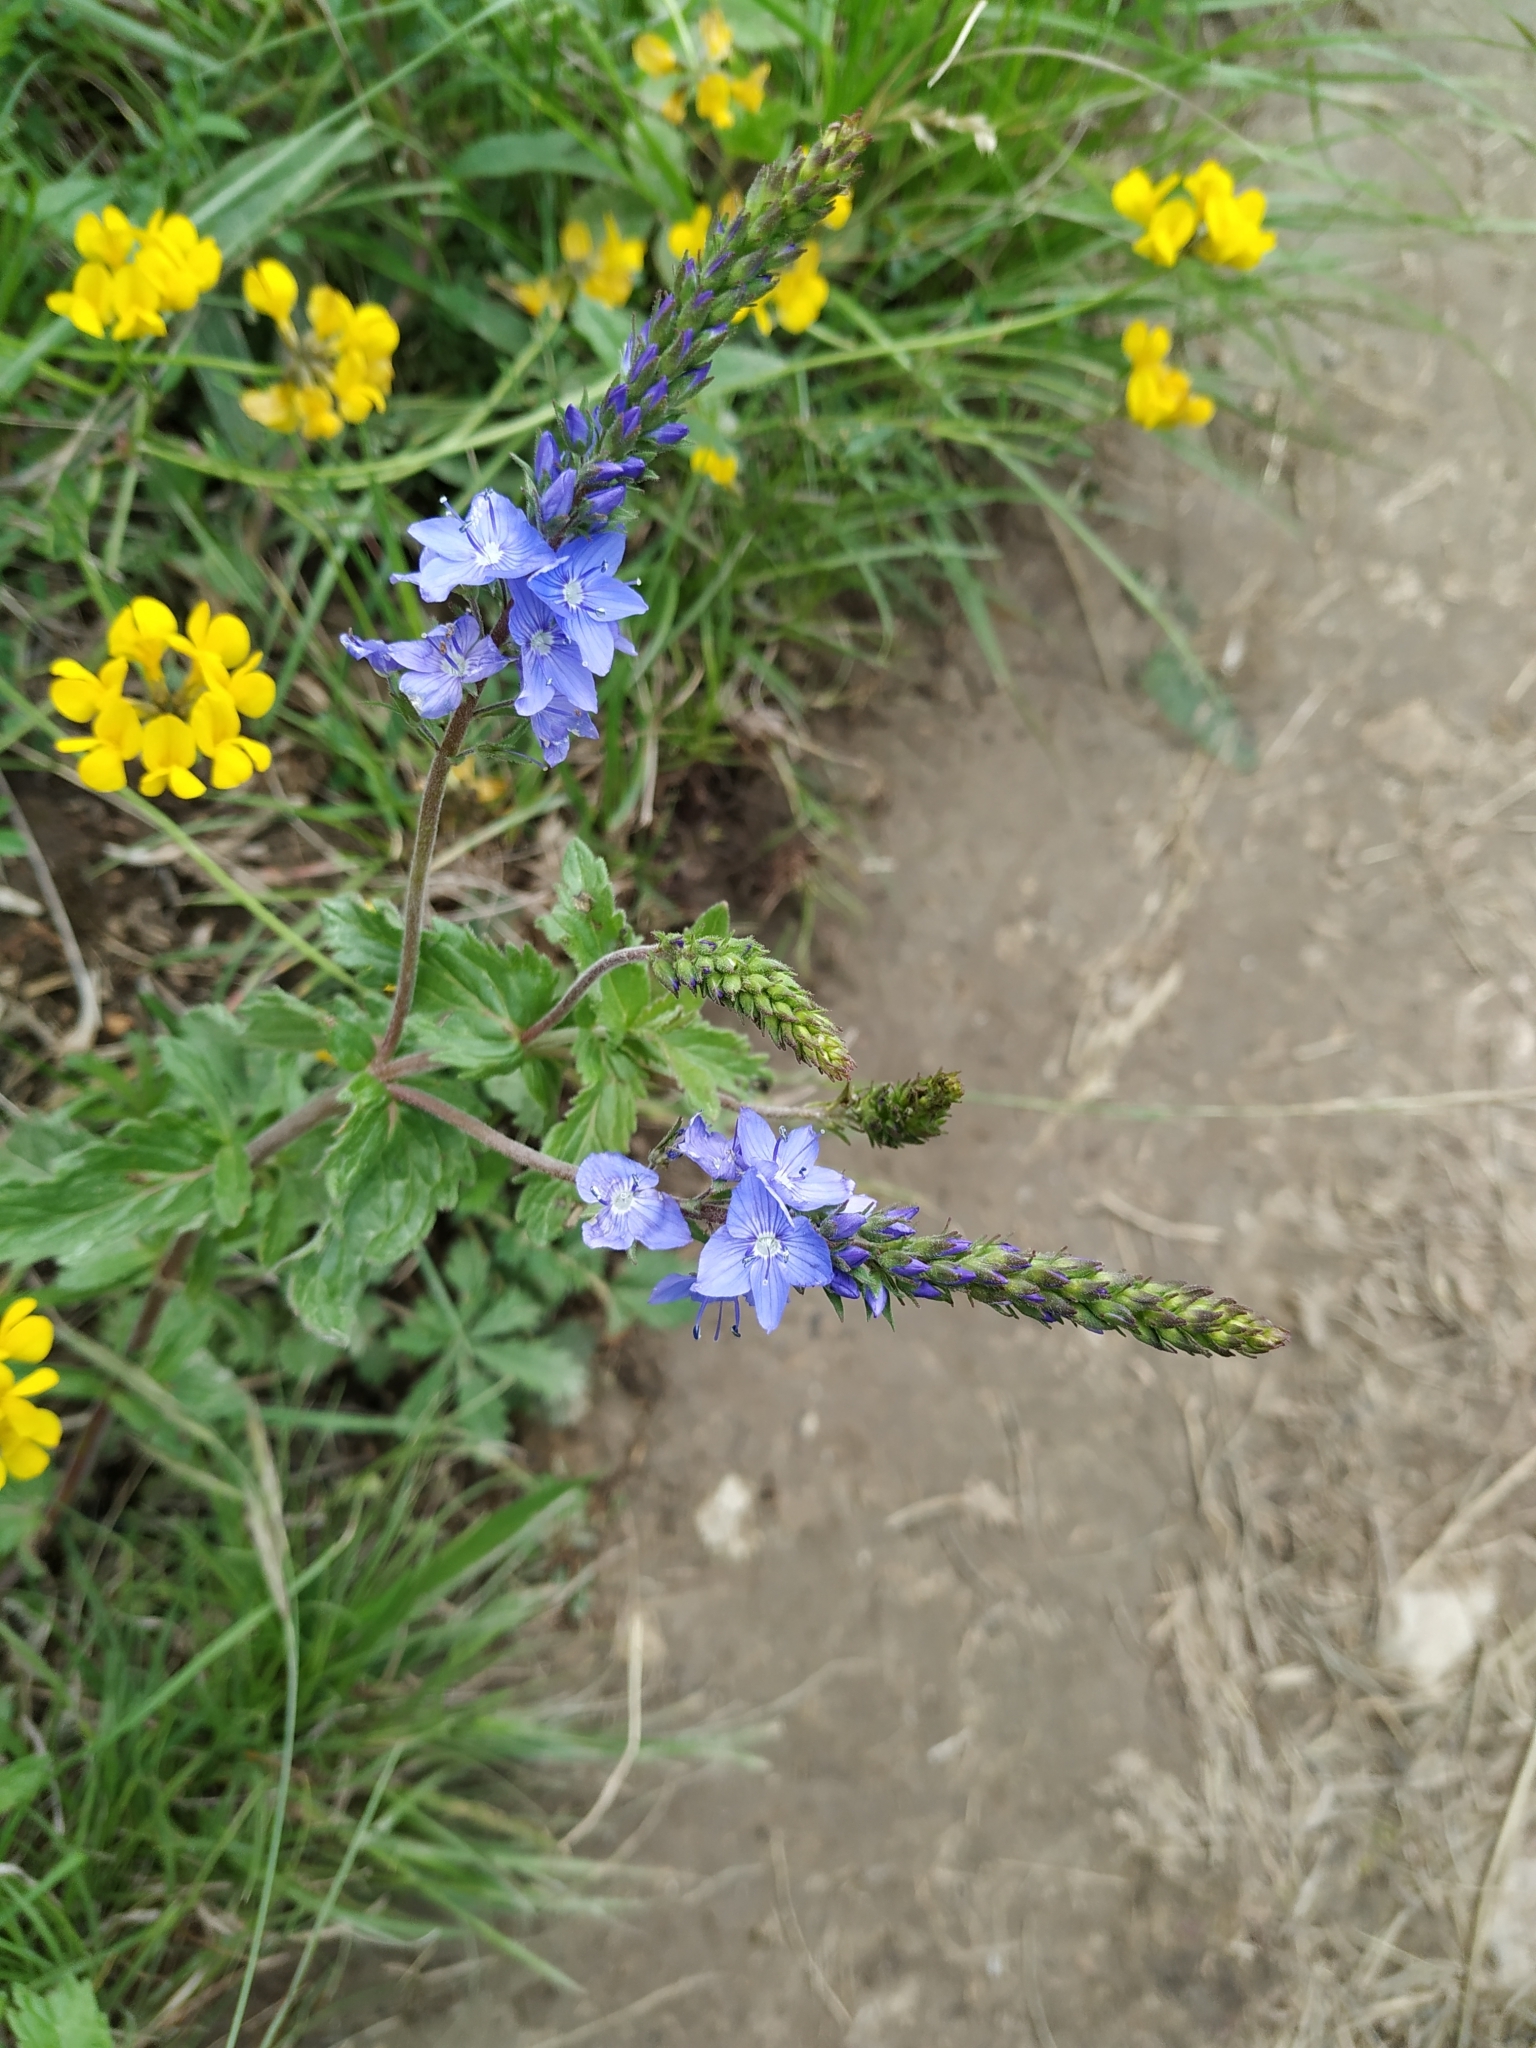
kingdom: Plantae
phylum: Tracheophyta
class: Magnoliopsida
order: Lamiales
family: Plantaginaceae
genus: Veronica
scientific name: Veronica teucrium
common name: Large speedwell
